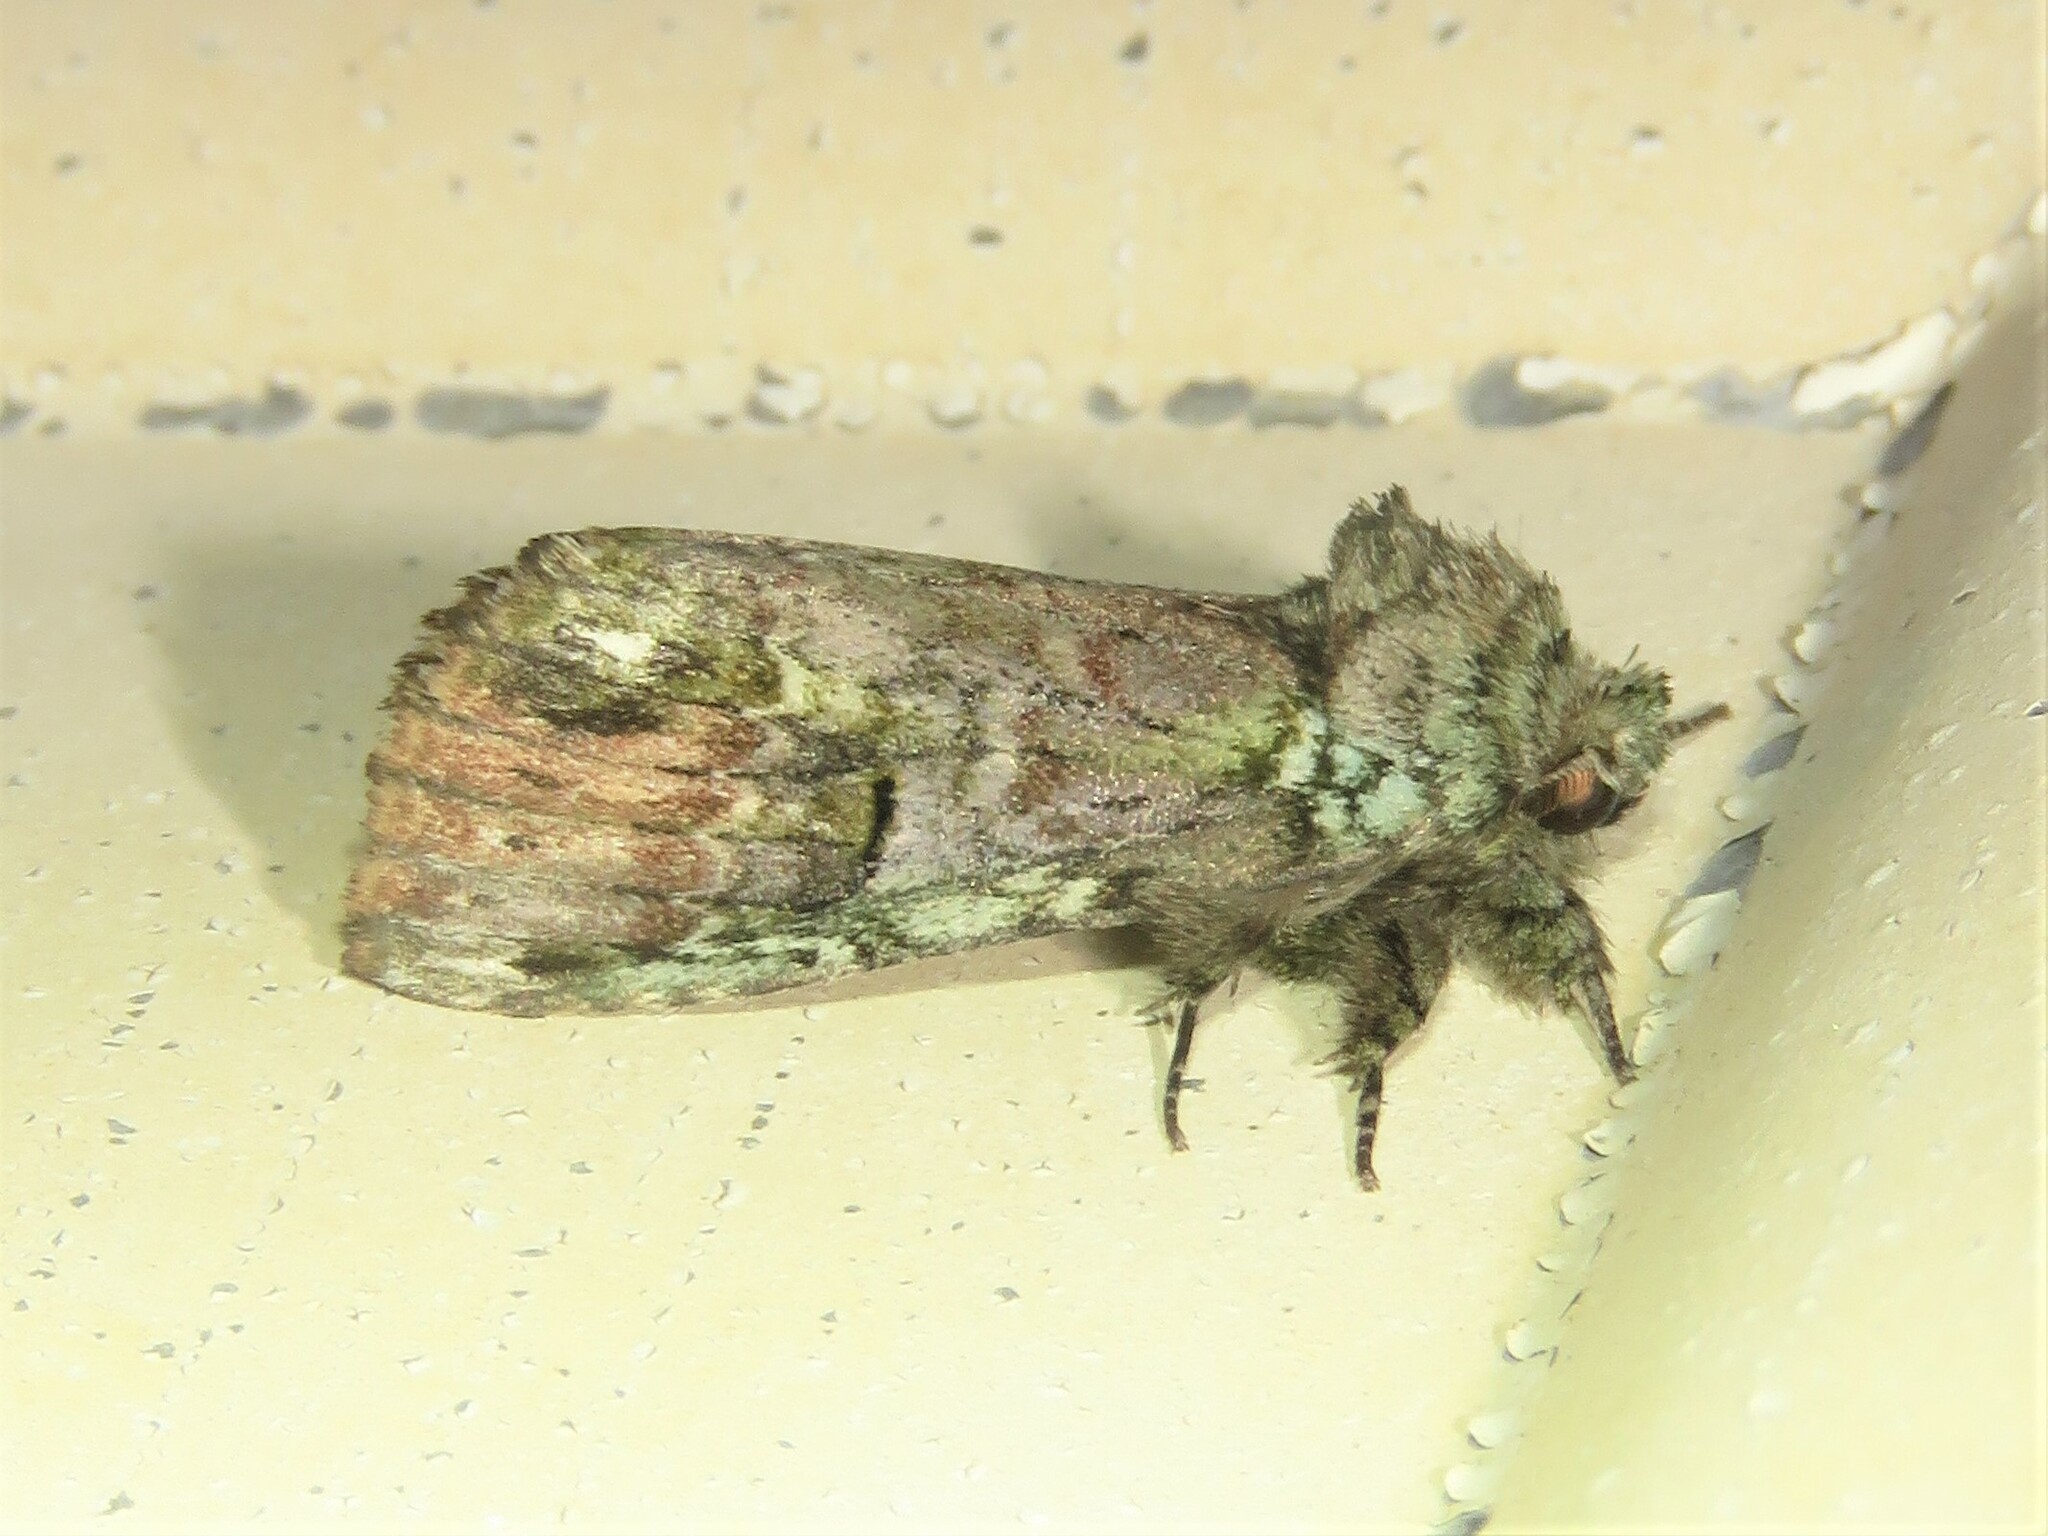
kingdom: Animalia
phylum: Arthropoda
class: Insecta
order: Lepidoptera
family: Notodontidae
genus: Schizura
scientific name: Schizura
